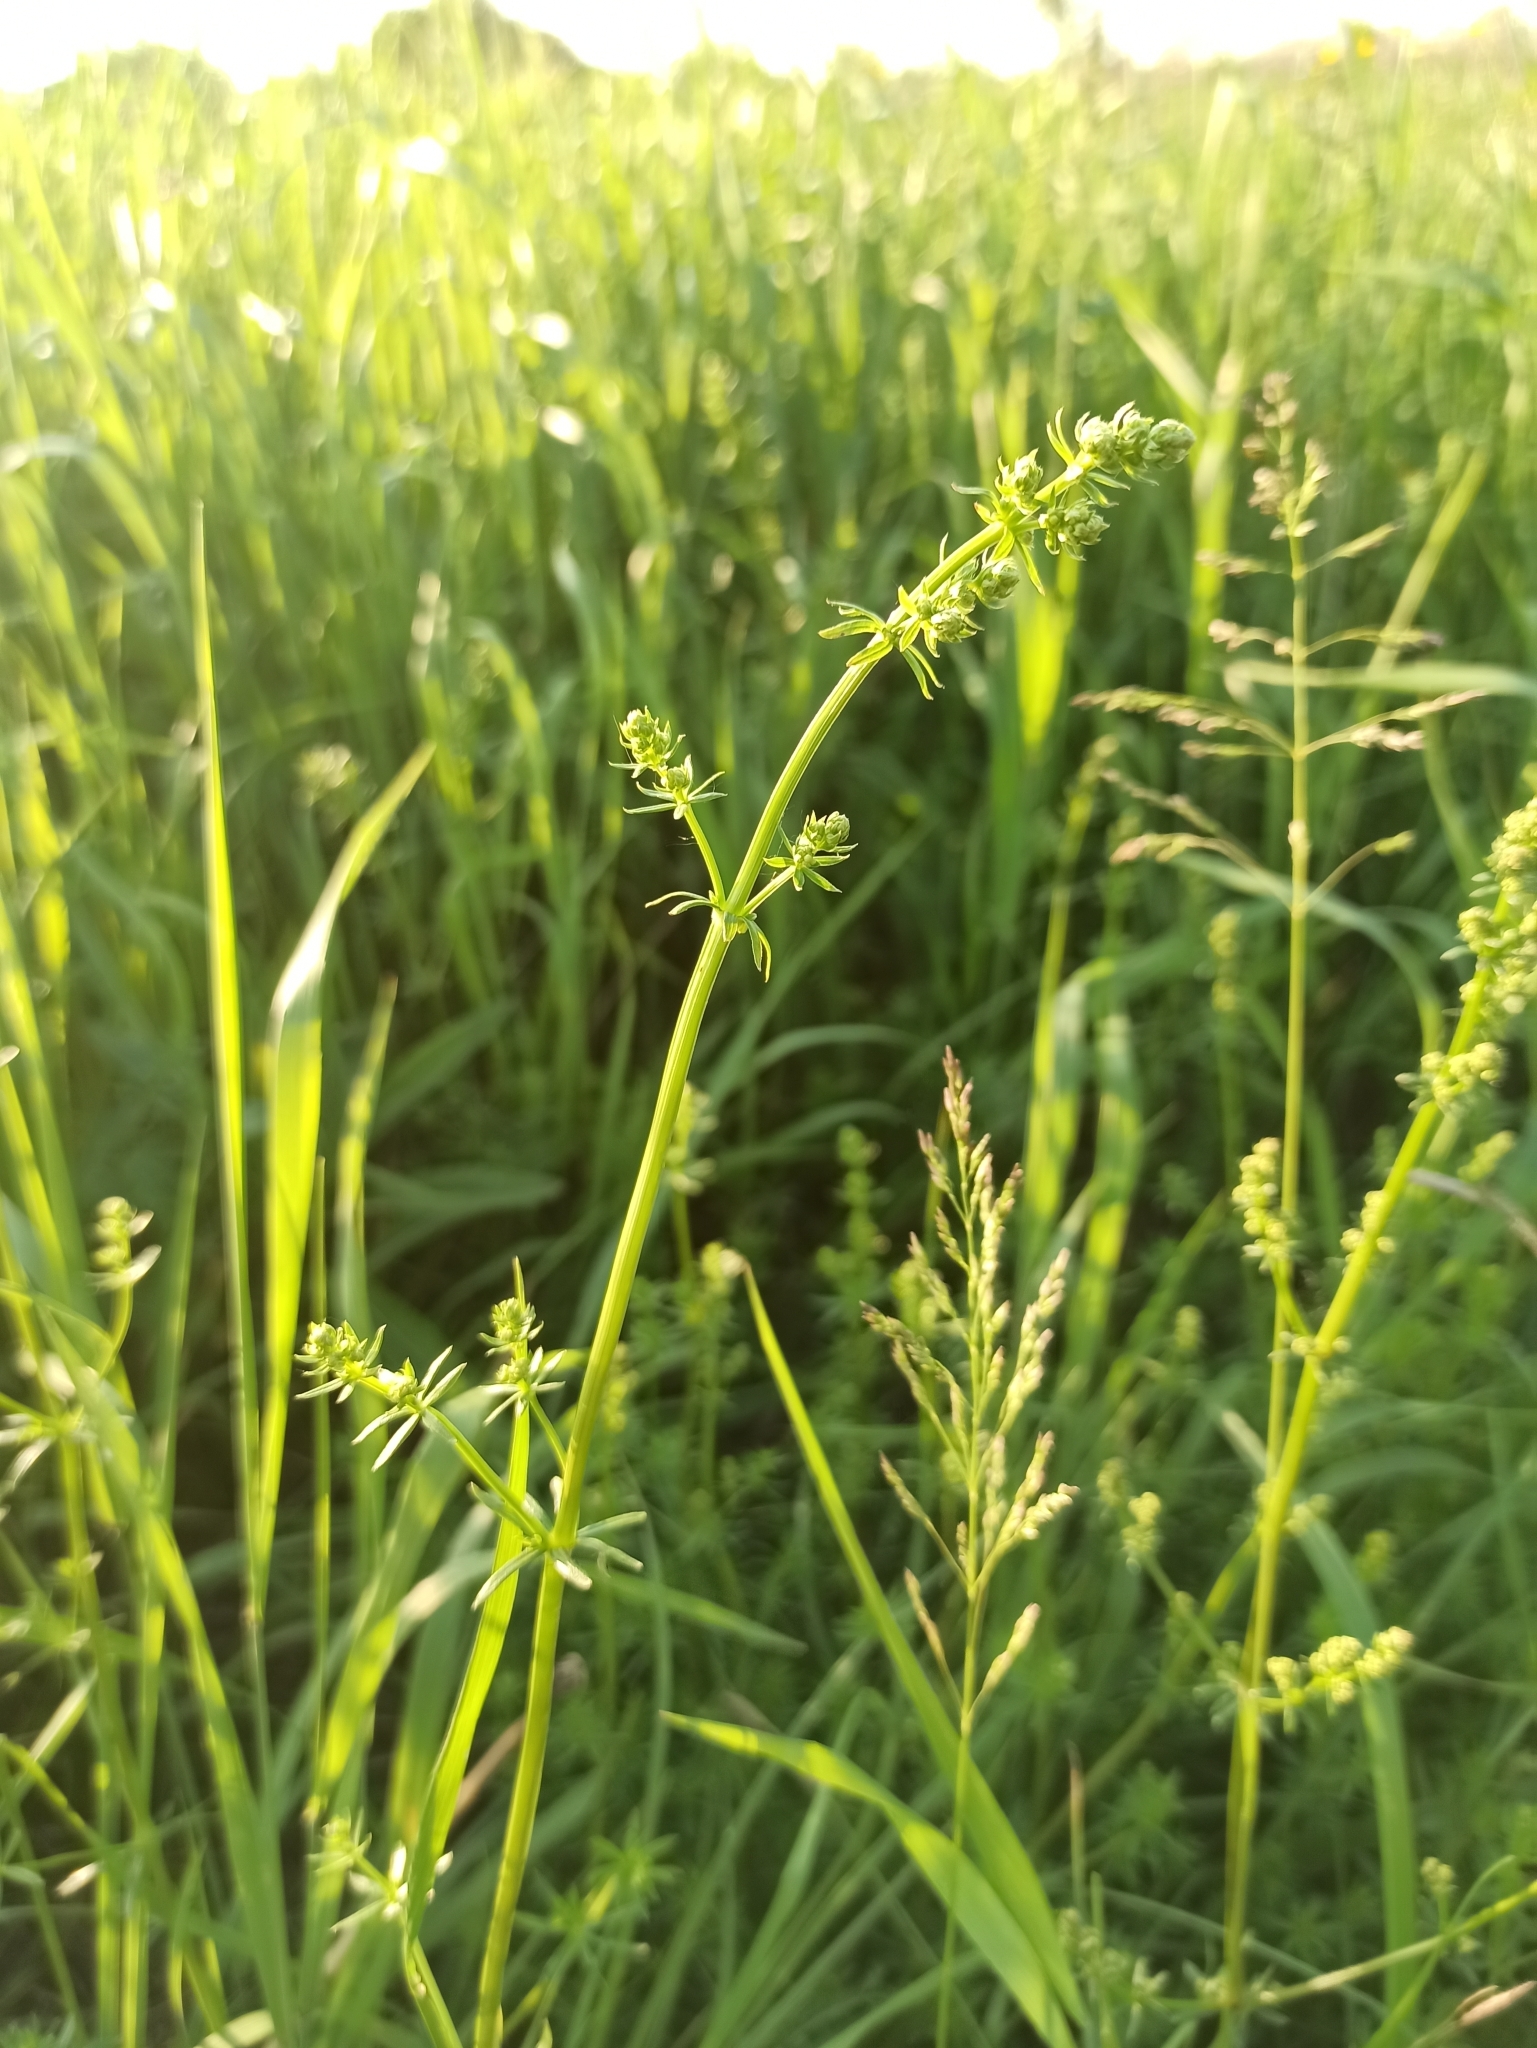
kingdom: Plantae
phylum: Tracheophyta
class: Magnoliopsida
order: Gentianales
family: Rubiaceae
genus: Galium
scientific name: Galium mollugo
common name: Hedge bedstraw
